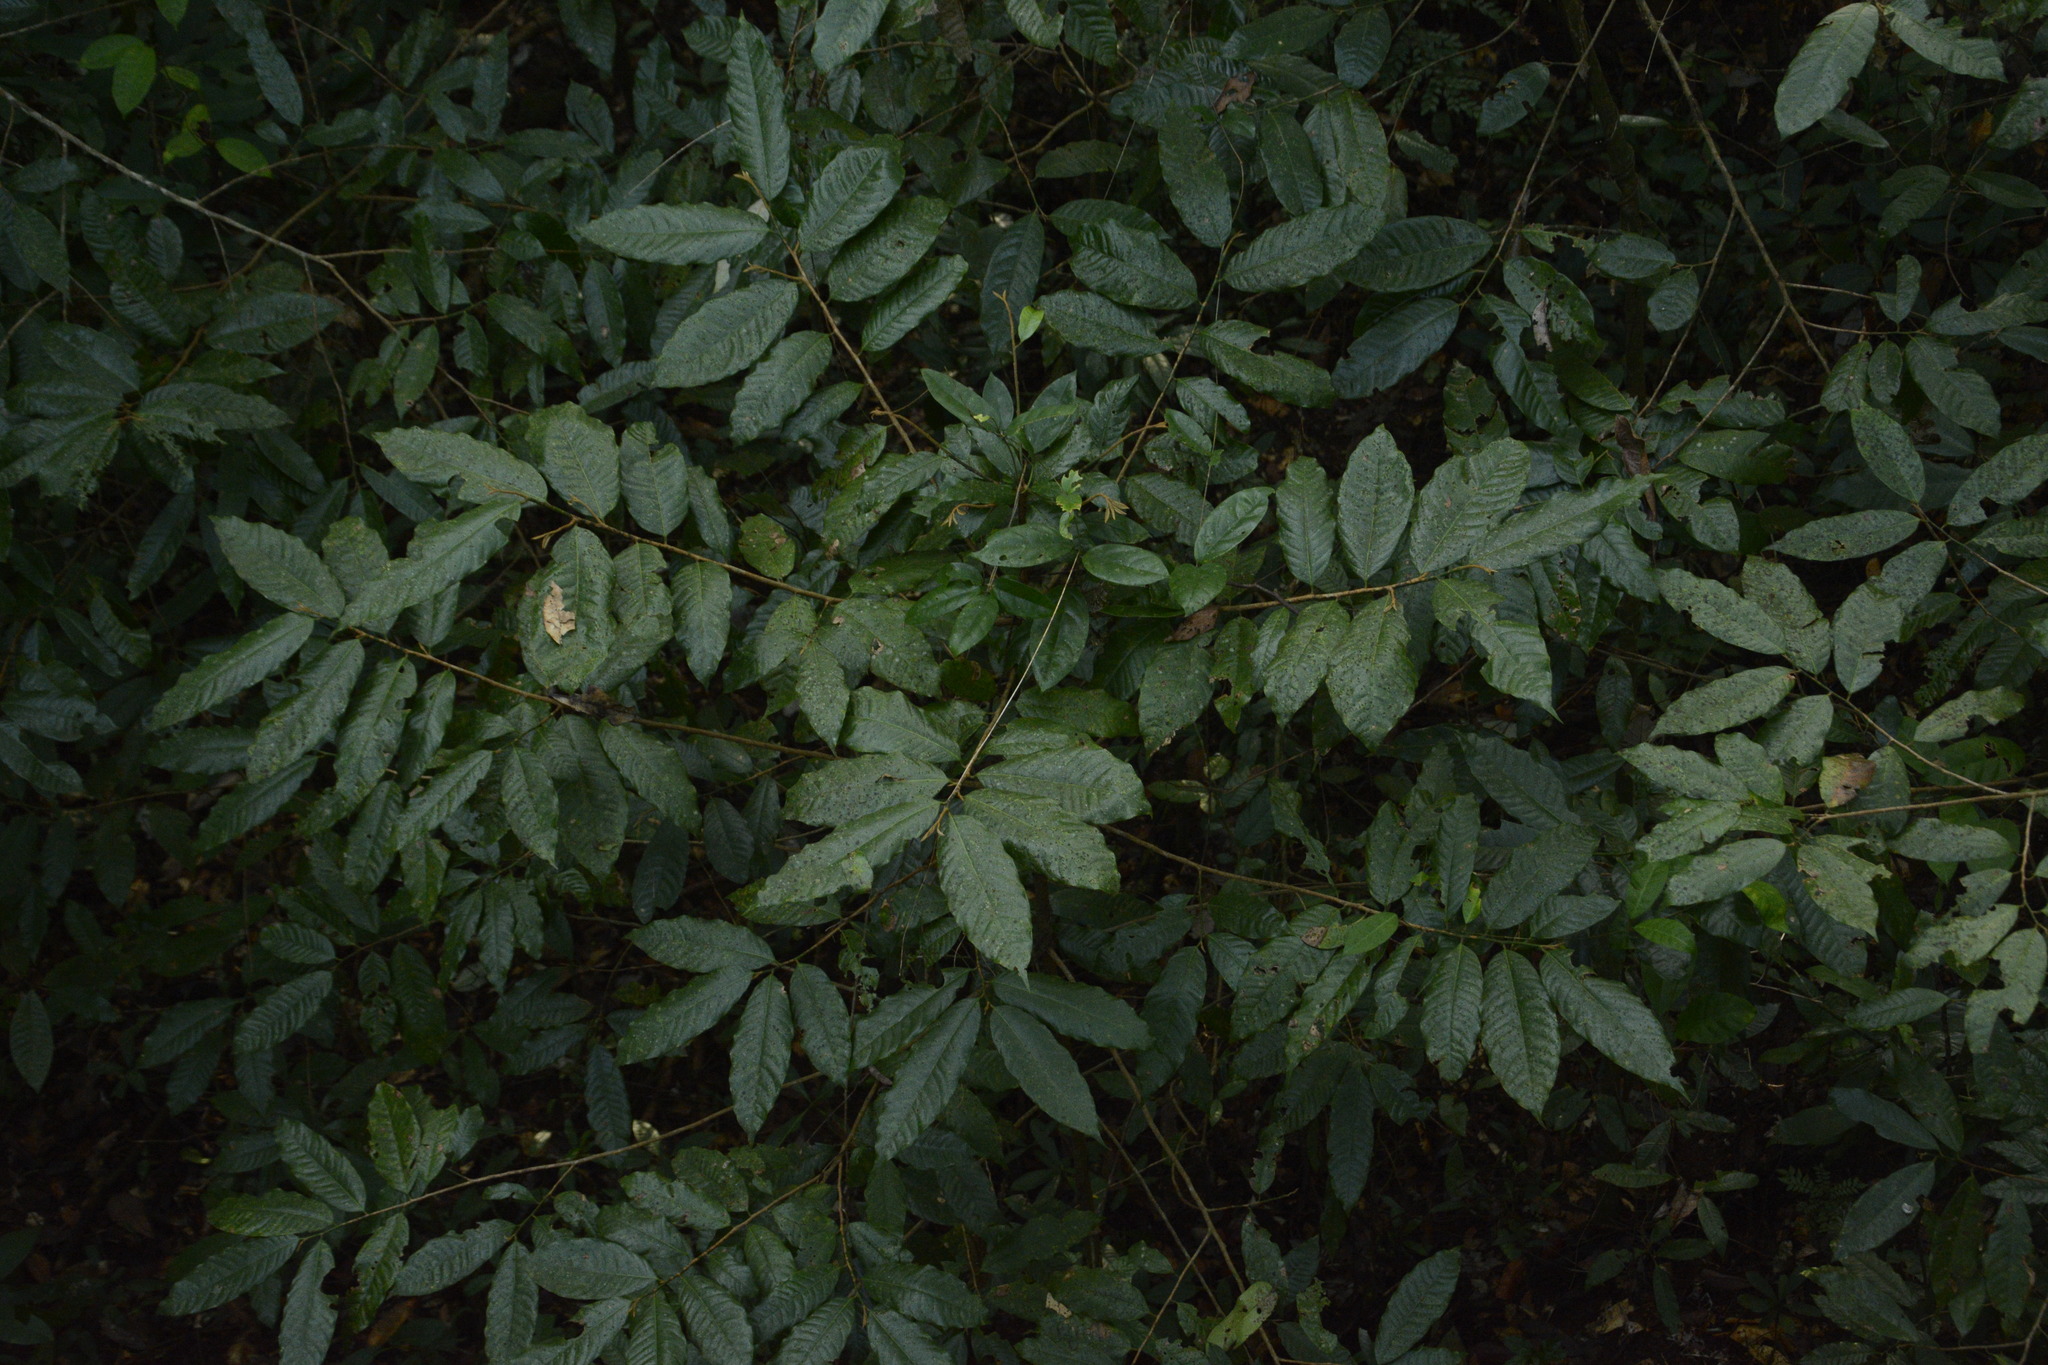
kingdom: Plantae
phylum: Tracheophyta
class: Magnoliopsida
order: Magnoliales
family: Myristicaceae
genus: Knema
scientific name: Knema attenuata
